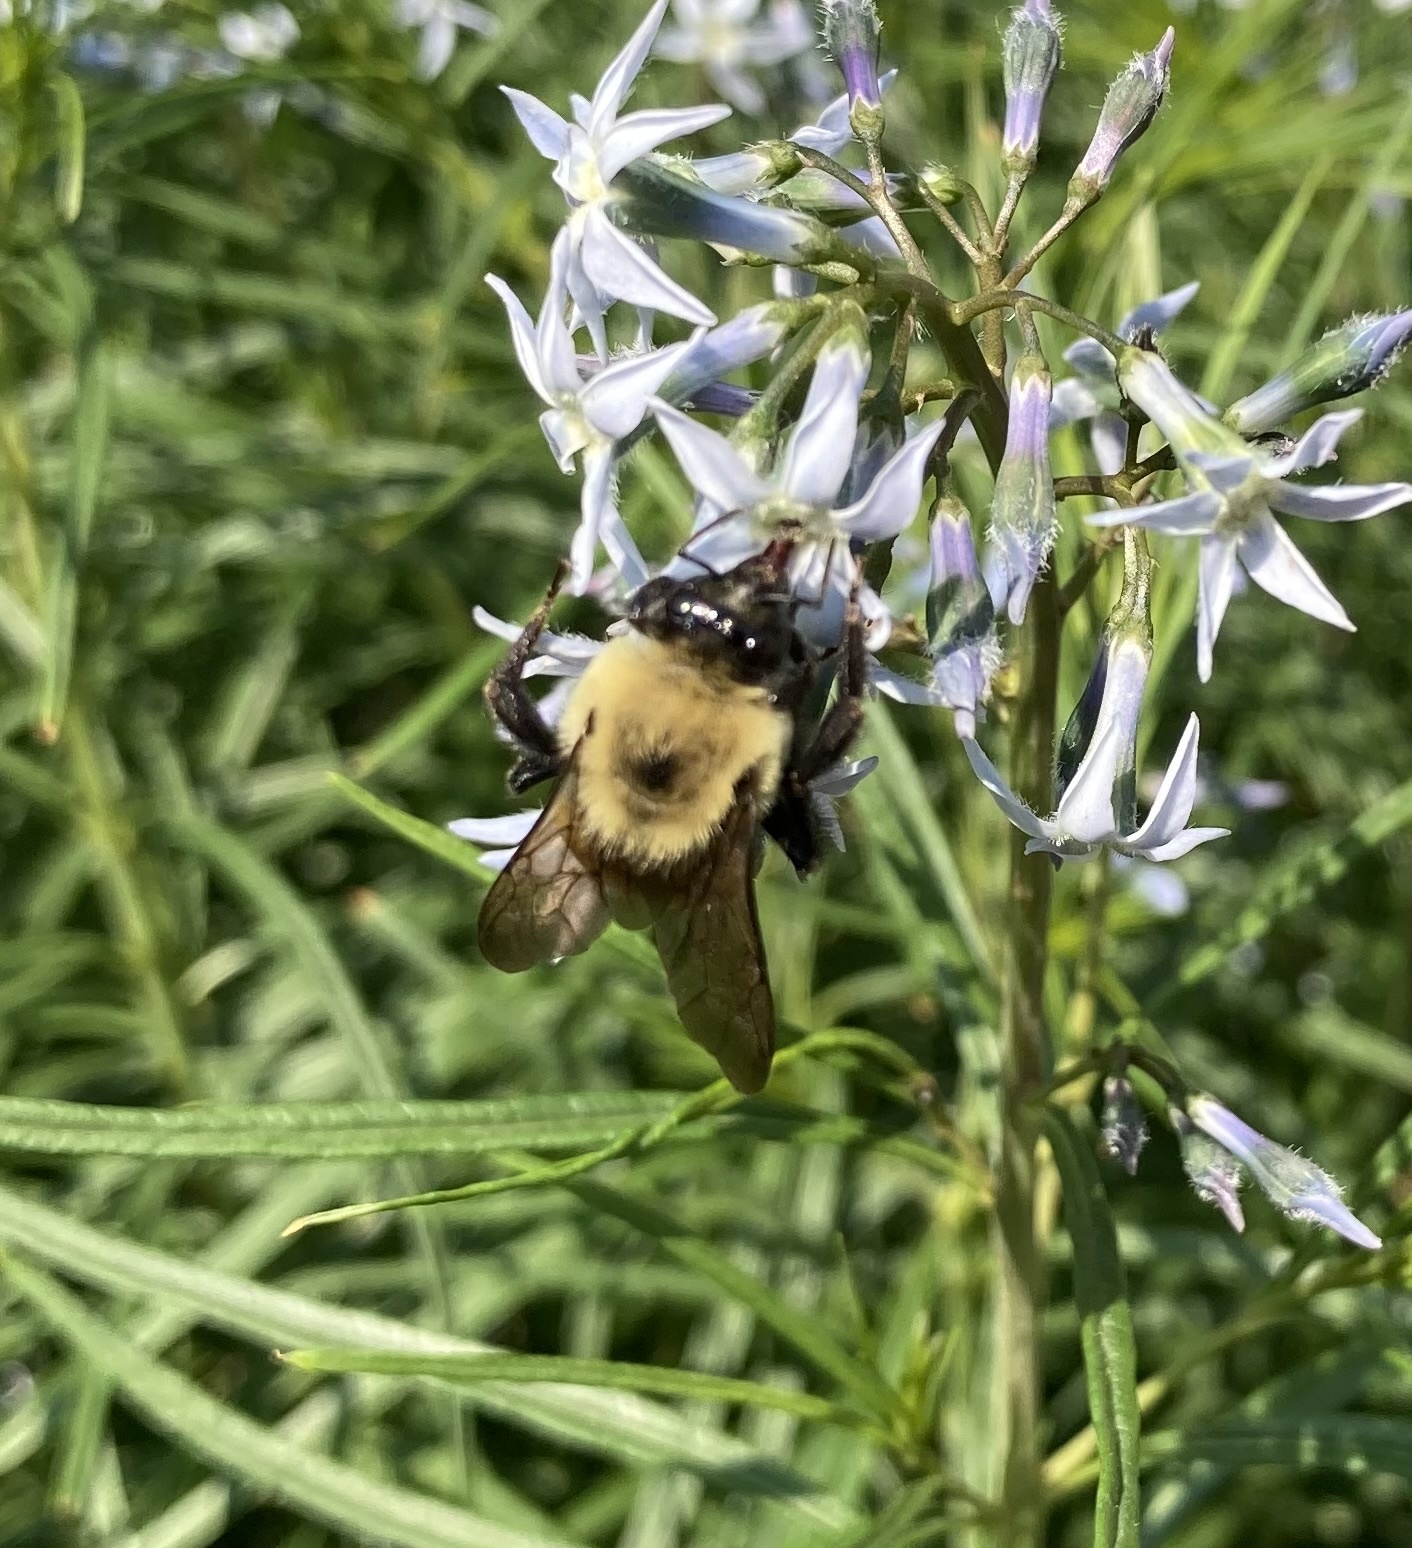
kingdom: Animalia
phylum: Arthropoda
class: Insecta
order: Hymenoptera
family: Apidae
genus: Bombus
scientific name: Bombus griseocollis
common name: Brown-belted bumble bee
